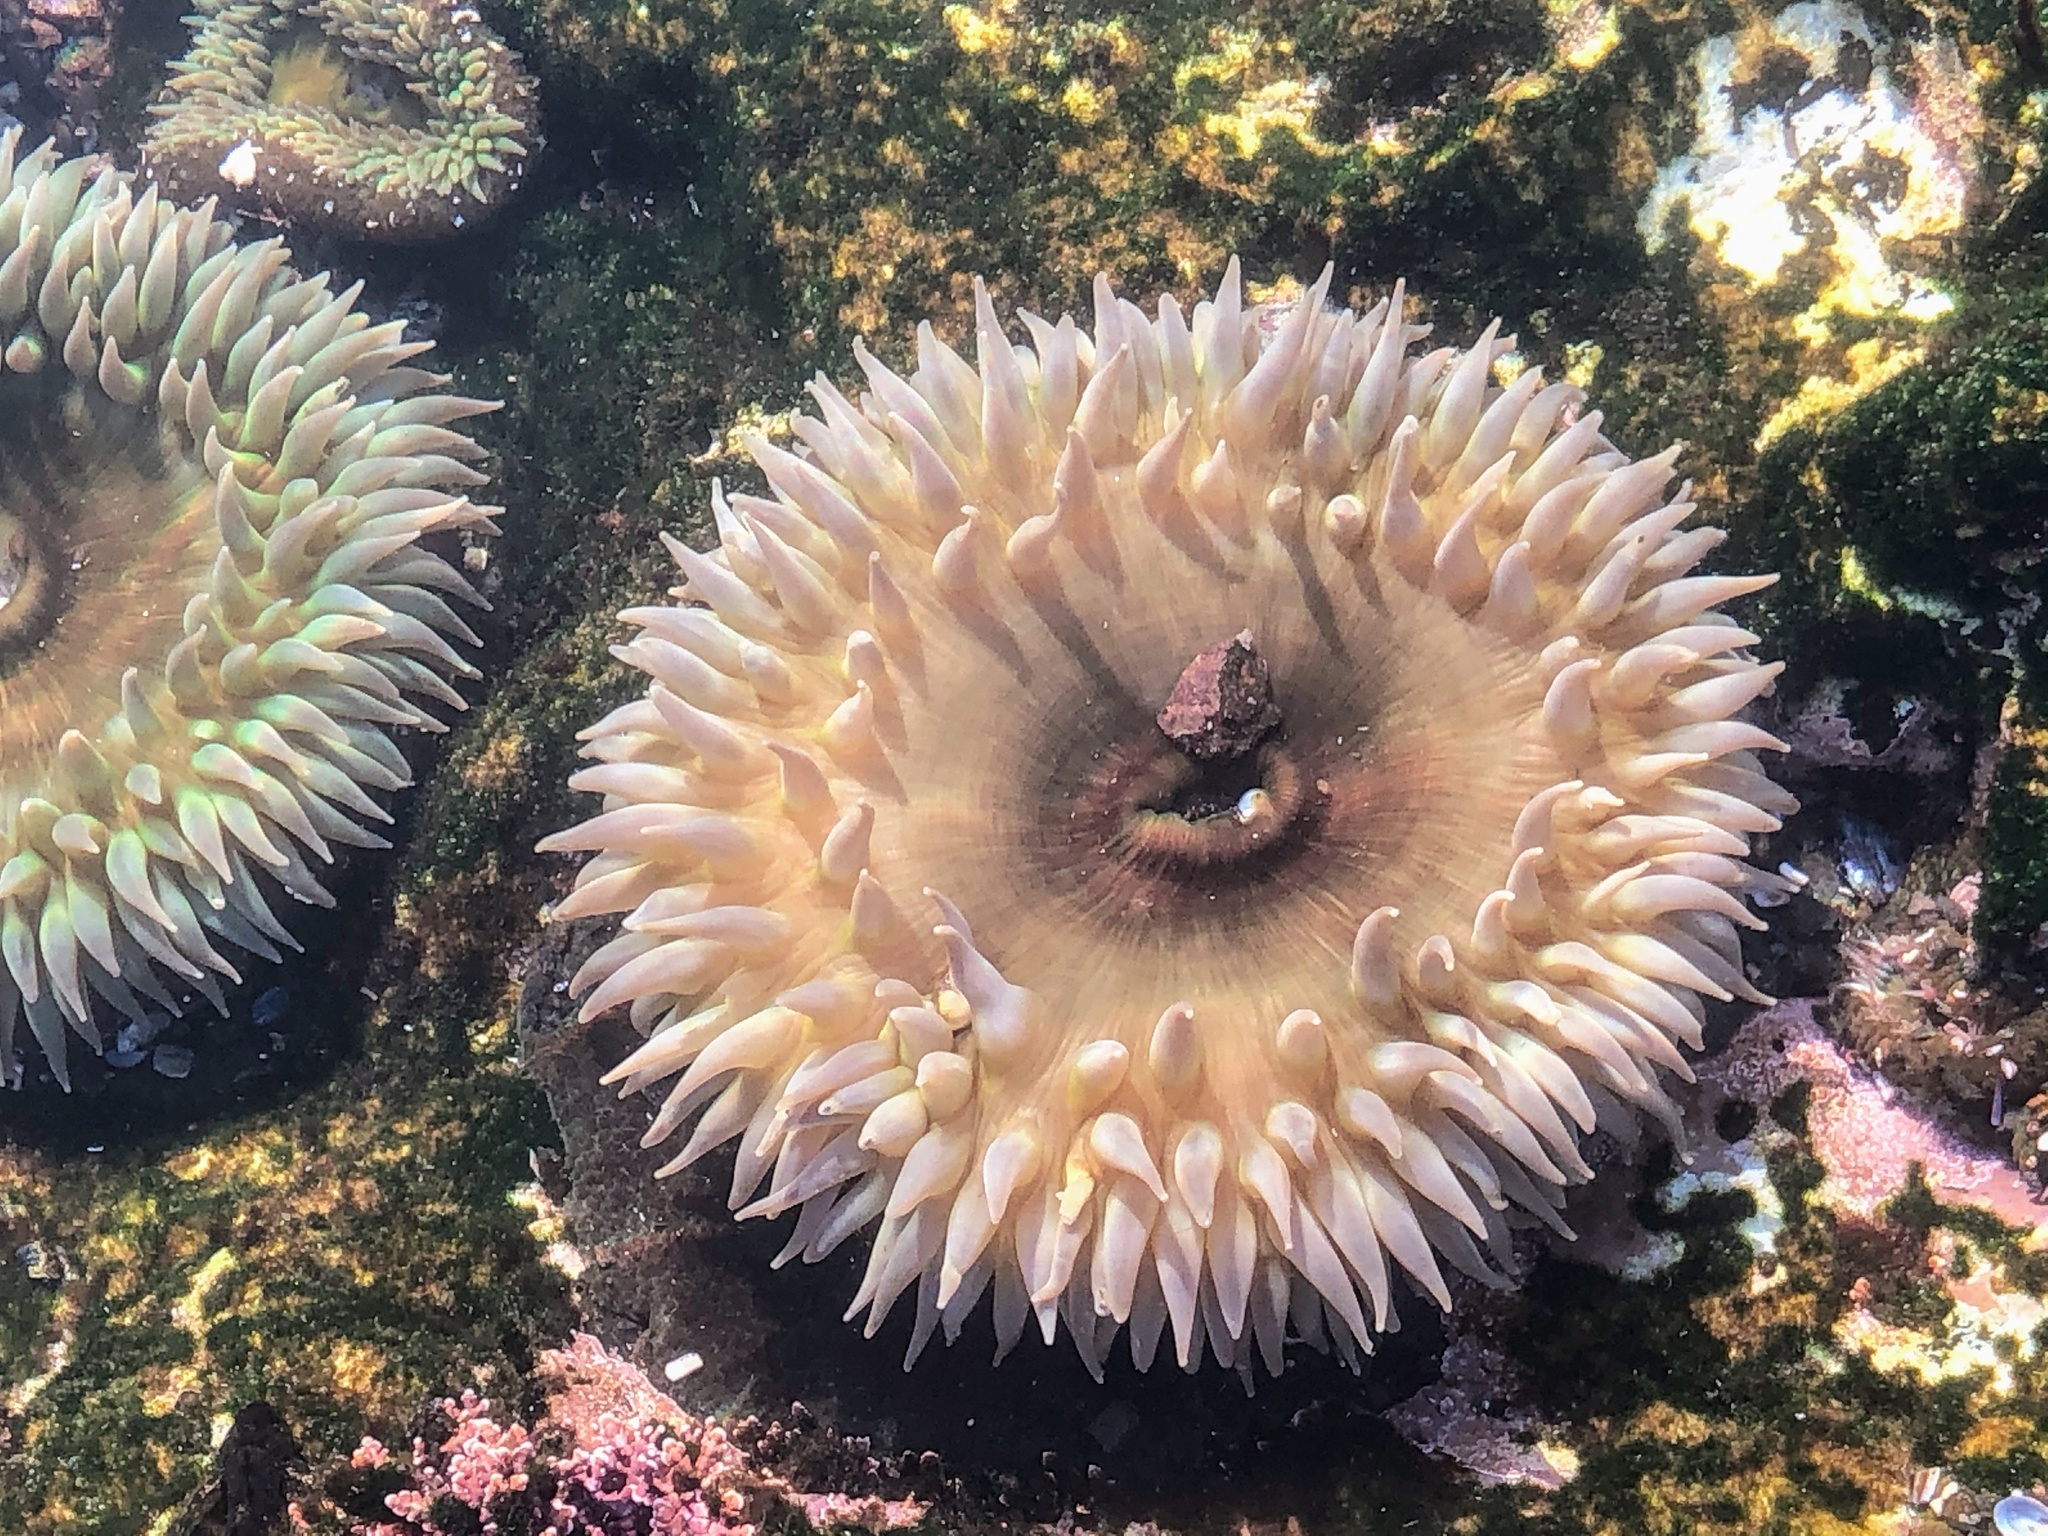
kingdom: Animalia
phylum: Cnidaria
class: Anthozoa
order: Actiniaria
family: Actiniidae
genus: Anthopleura
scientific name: Anthopleura xanthogrammica
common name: Giant green anemone
